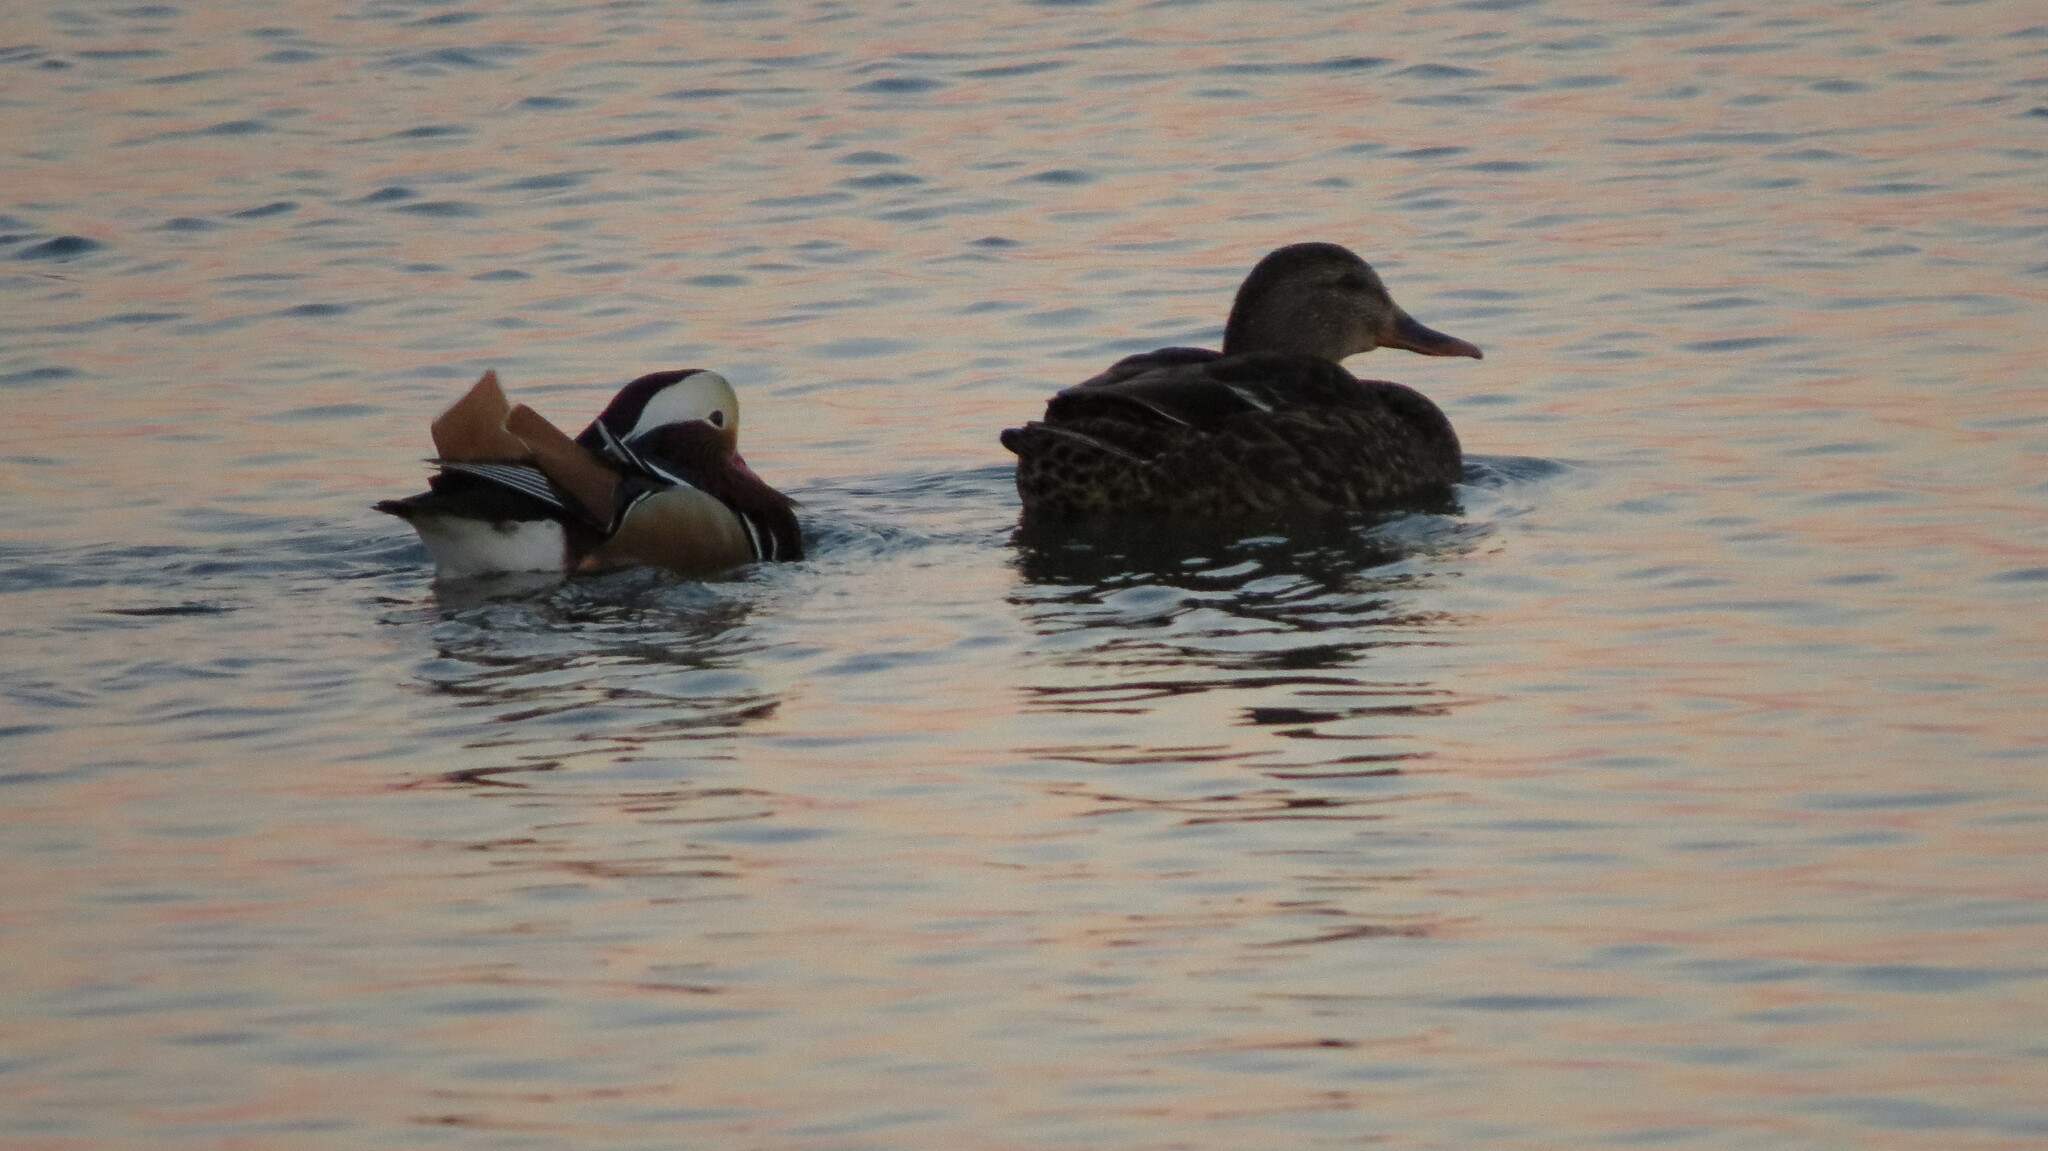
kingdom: Animalia
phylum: Chordata
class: Aves
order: Anseriformes
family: Anatidae
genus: Anas
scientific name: Anas
